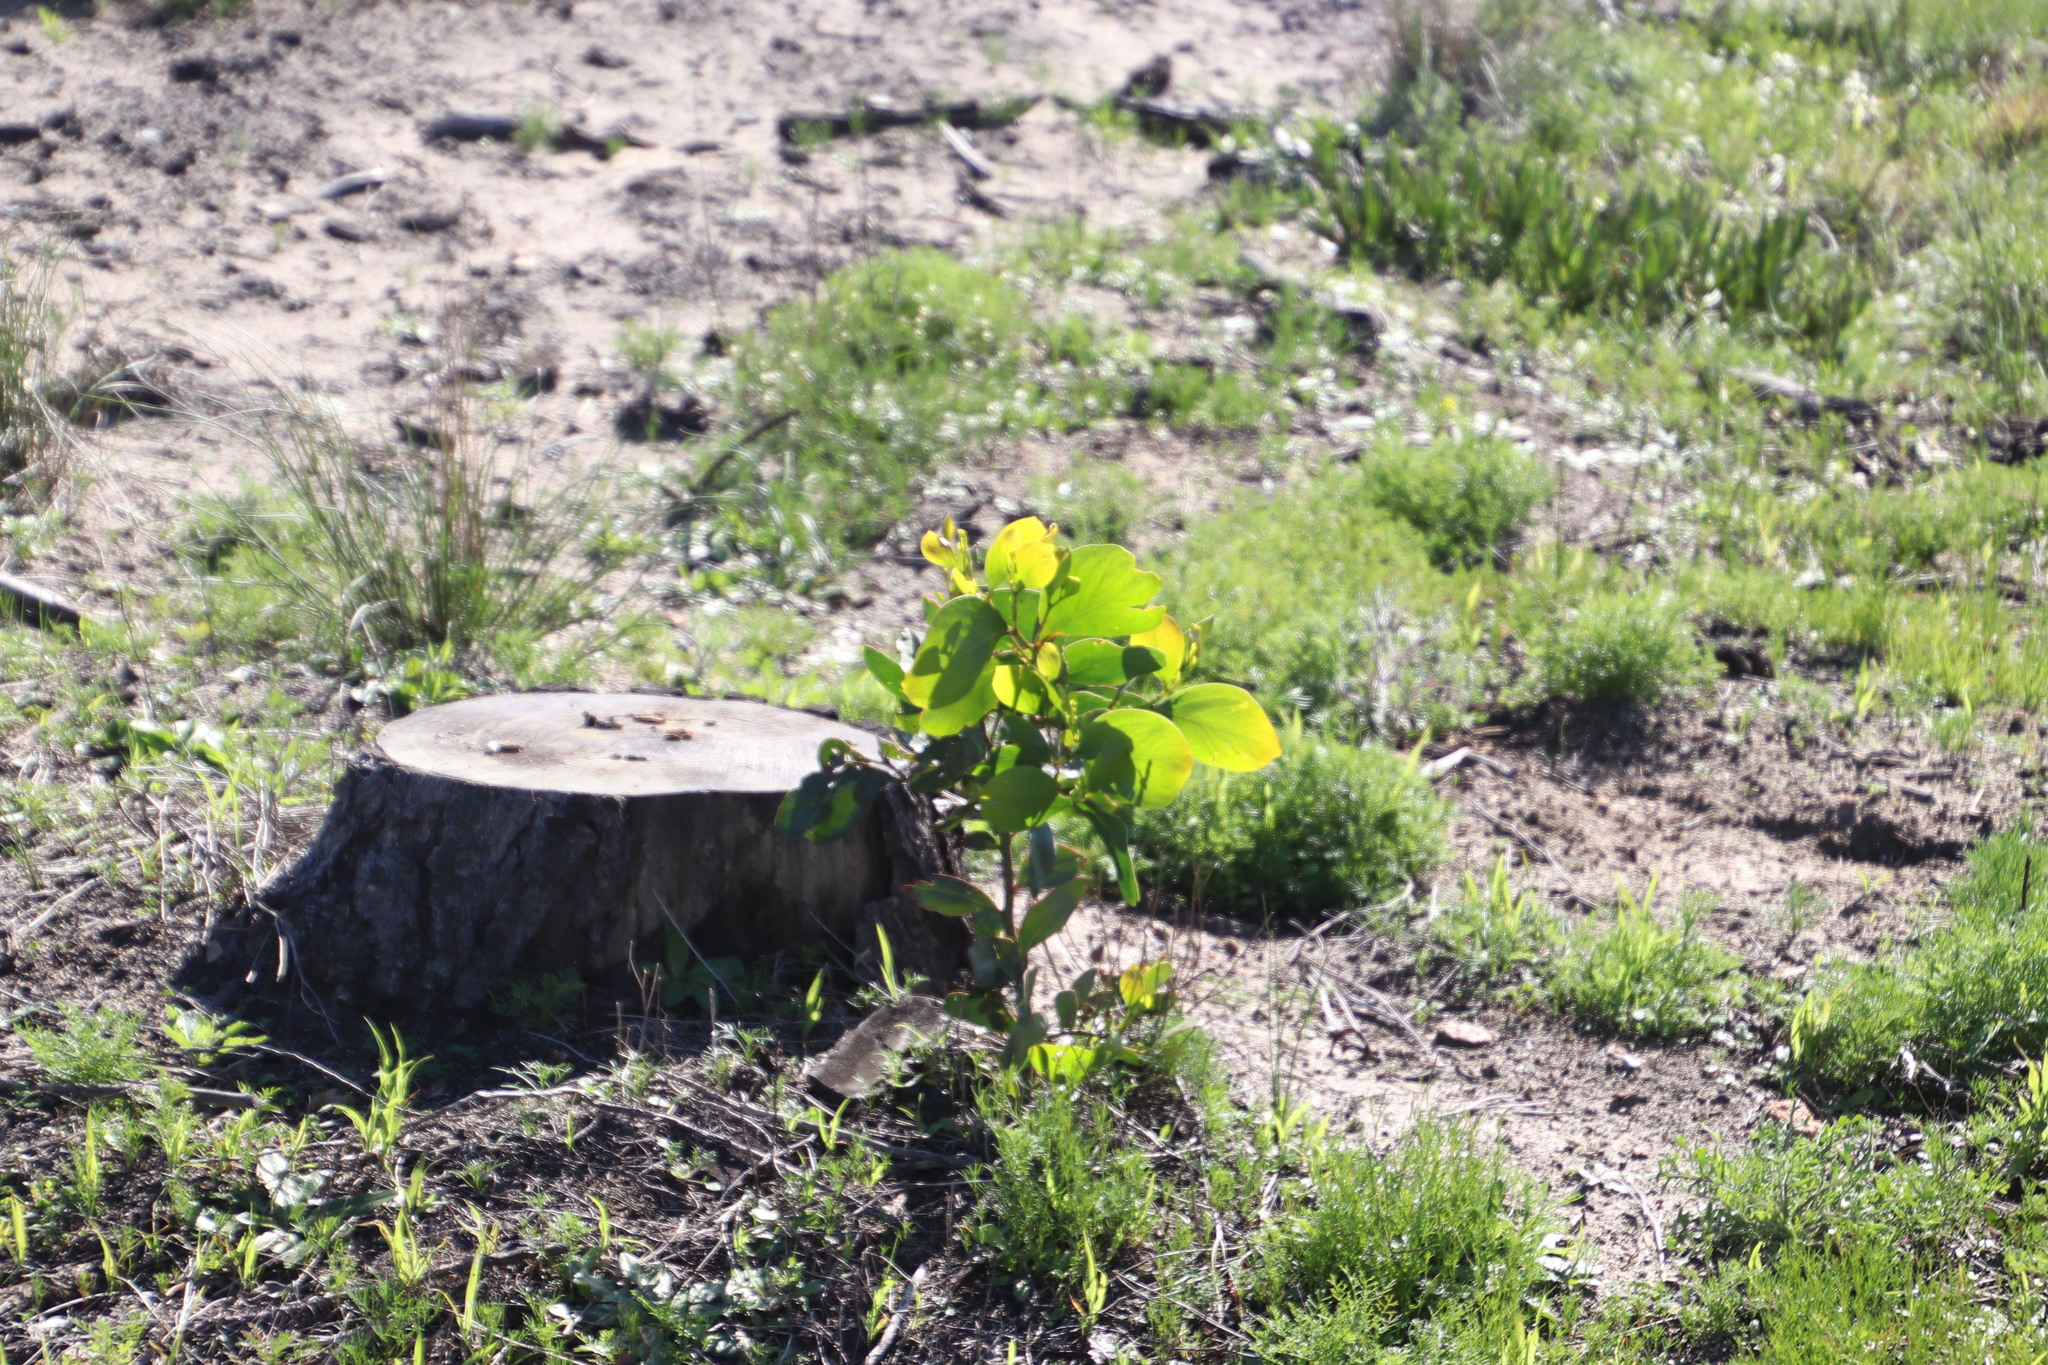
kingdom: Plantae
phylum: Tracheophyta
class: Magnoliopsida
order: Fabales
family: Fabaceae
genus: Acacia
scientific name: Acacia pycnantha
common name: Golden wattle
